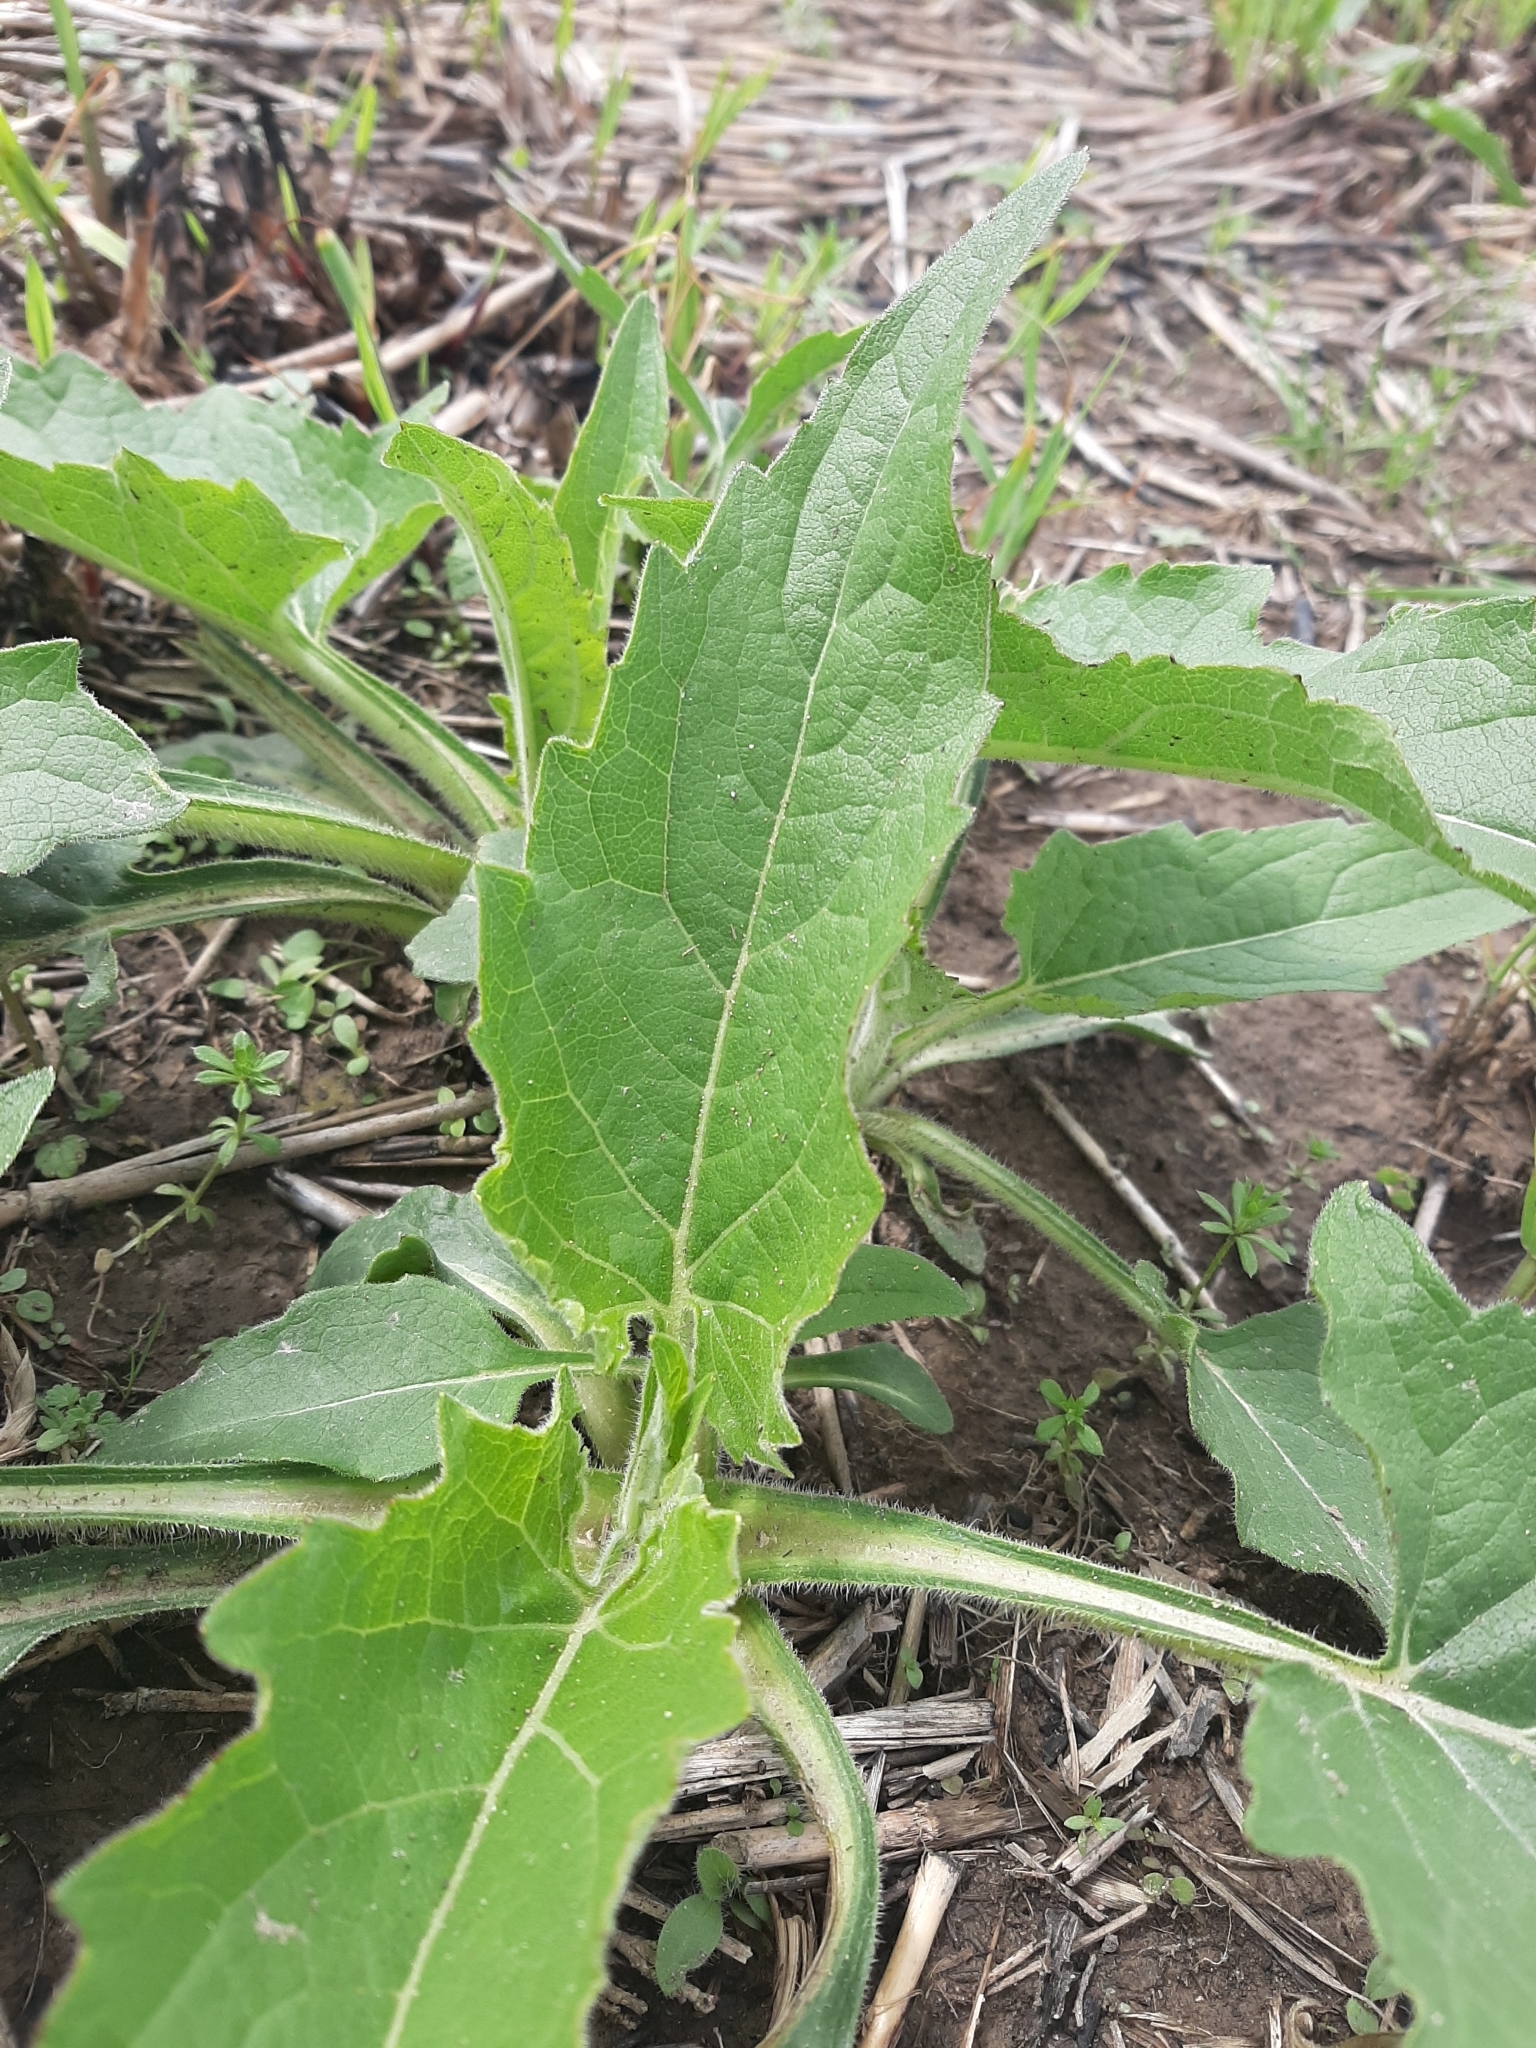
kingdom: Plantae
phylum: Tracheophyta
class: Magnoliopsida
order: Asterales
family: Asteraceae
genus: Silphium
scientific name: Silphium perfoliatum
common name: Cup-plant
